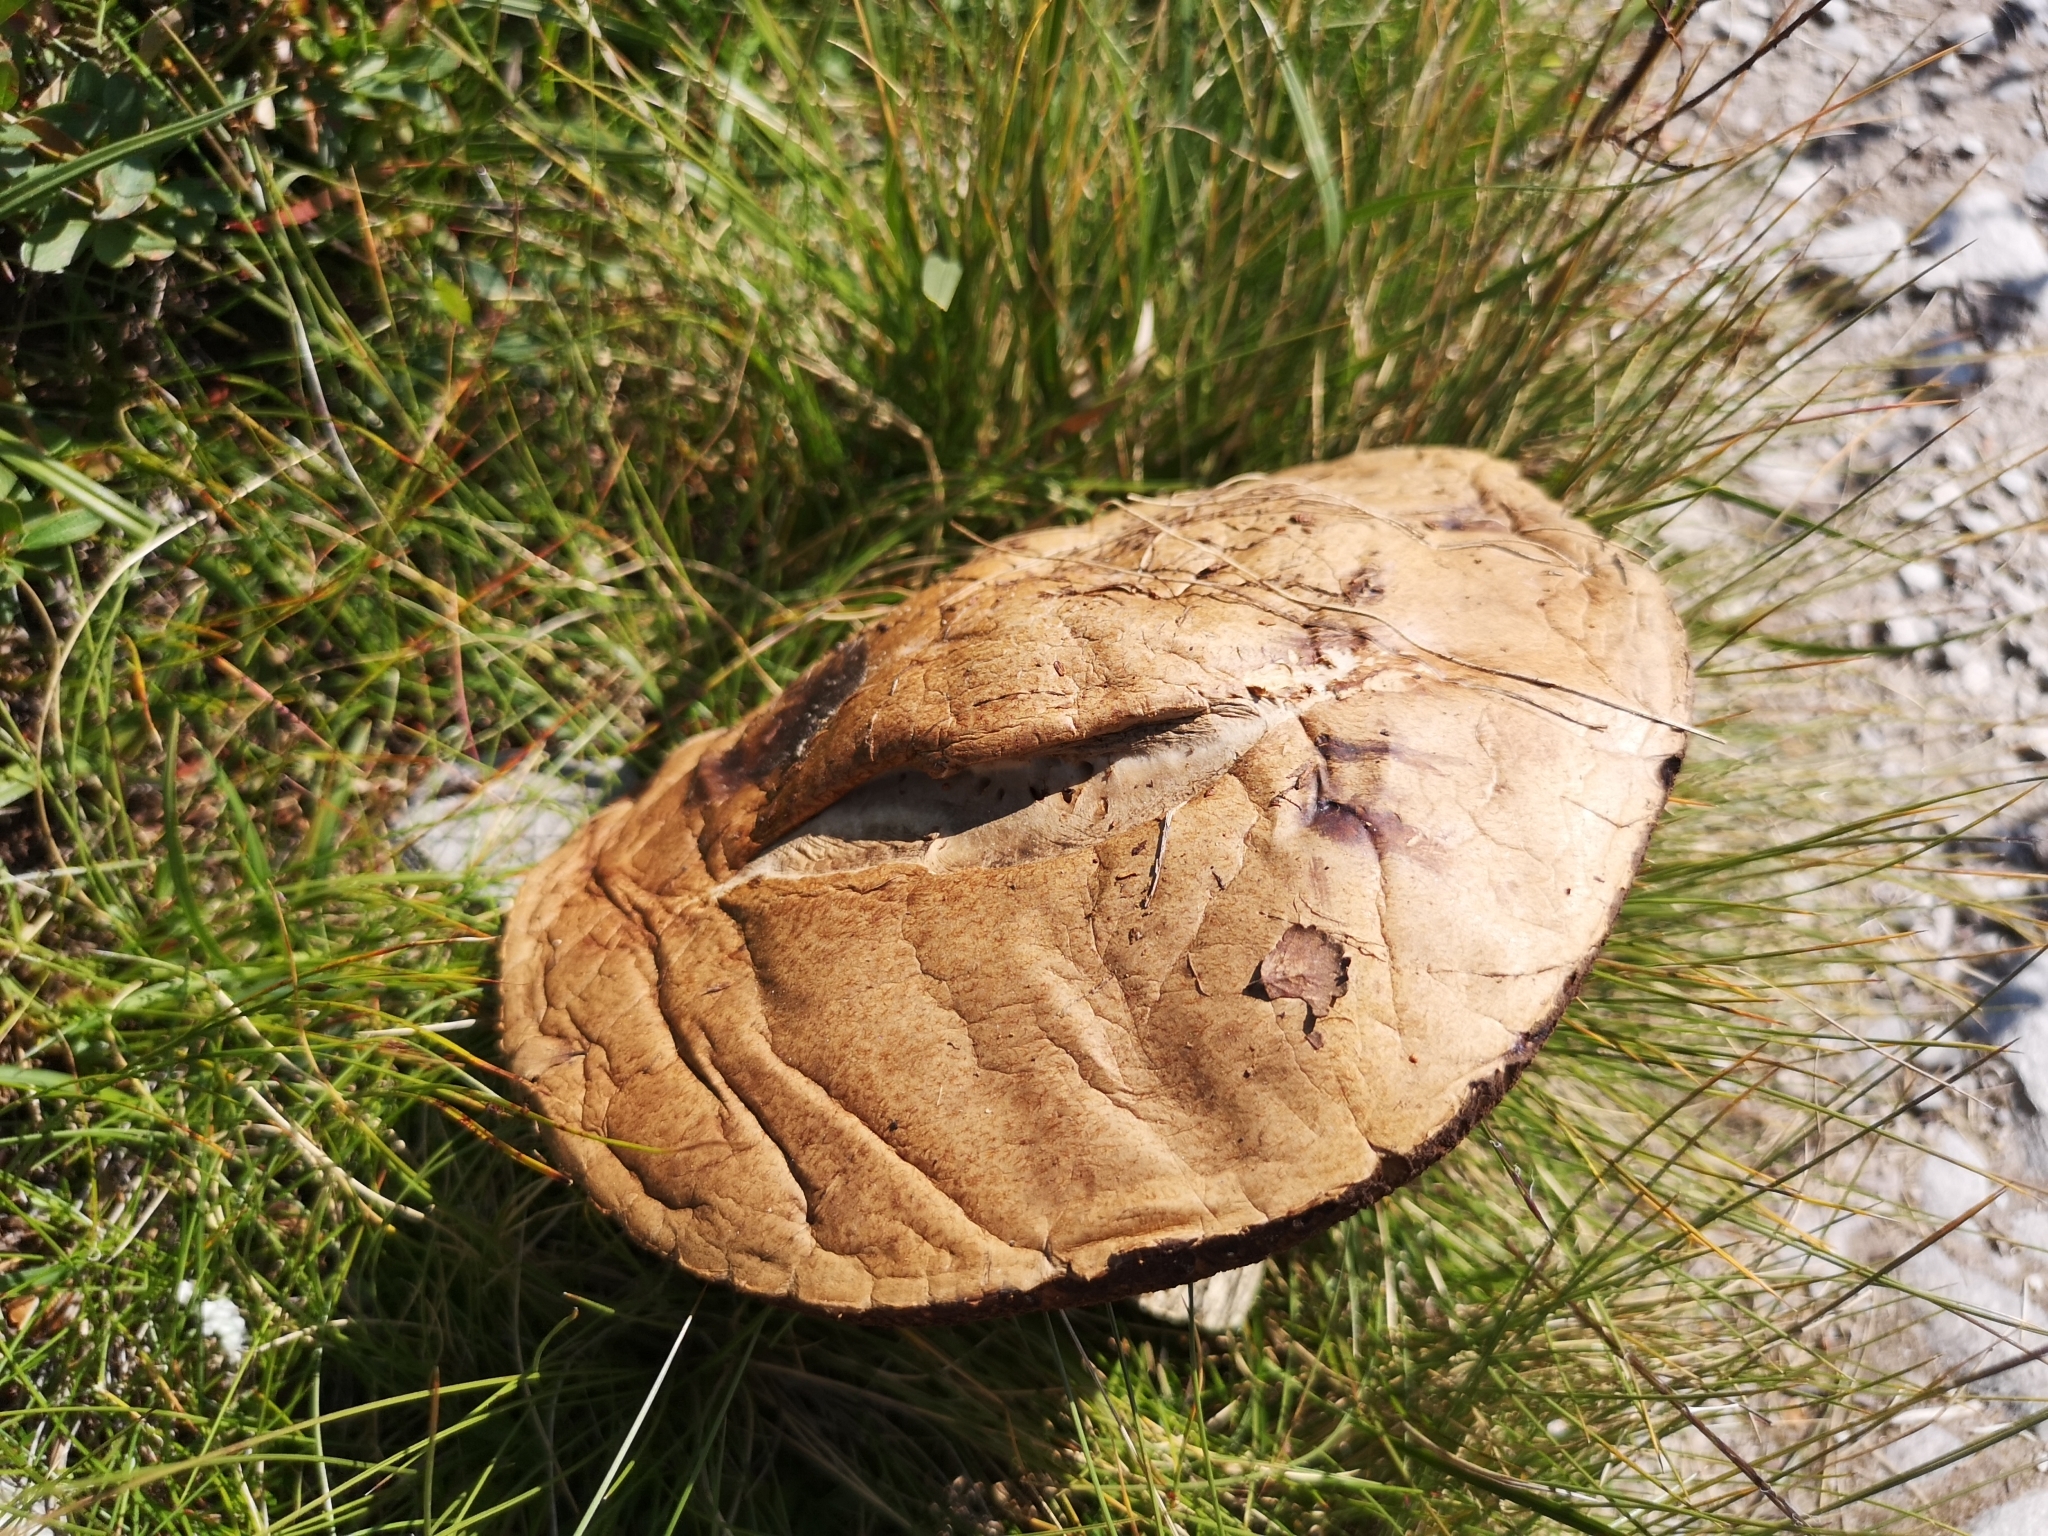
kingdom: Fungi
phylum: Basidiomycota
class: Agaricomycetes
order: Boletales
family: Boletaceae
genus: Leccinum
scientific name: Leccinum scabrum
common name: Blushing bolete
